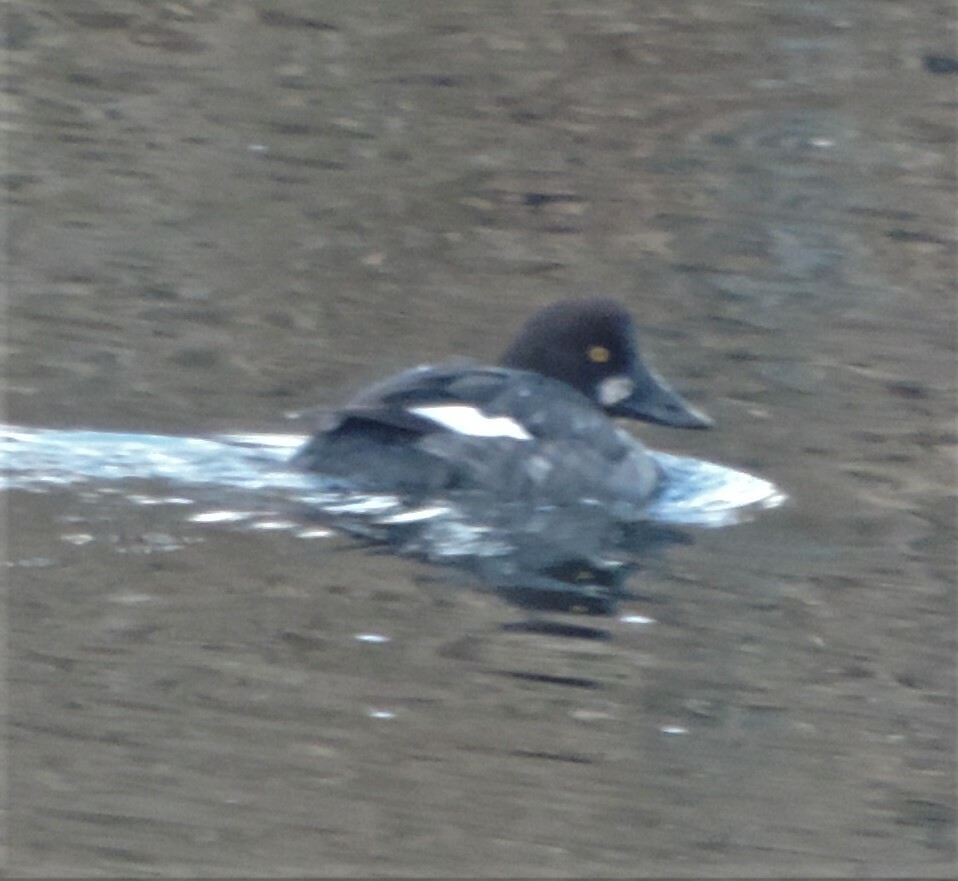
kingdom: Animalia
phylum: Chordata
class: Aves
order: Anseriformes
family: Anatidae
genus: Bucephala
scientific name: Bucephala clangula
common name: Common goldeneye
